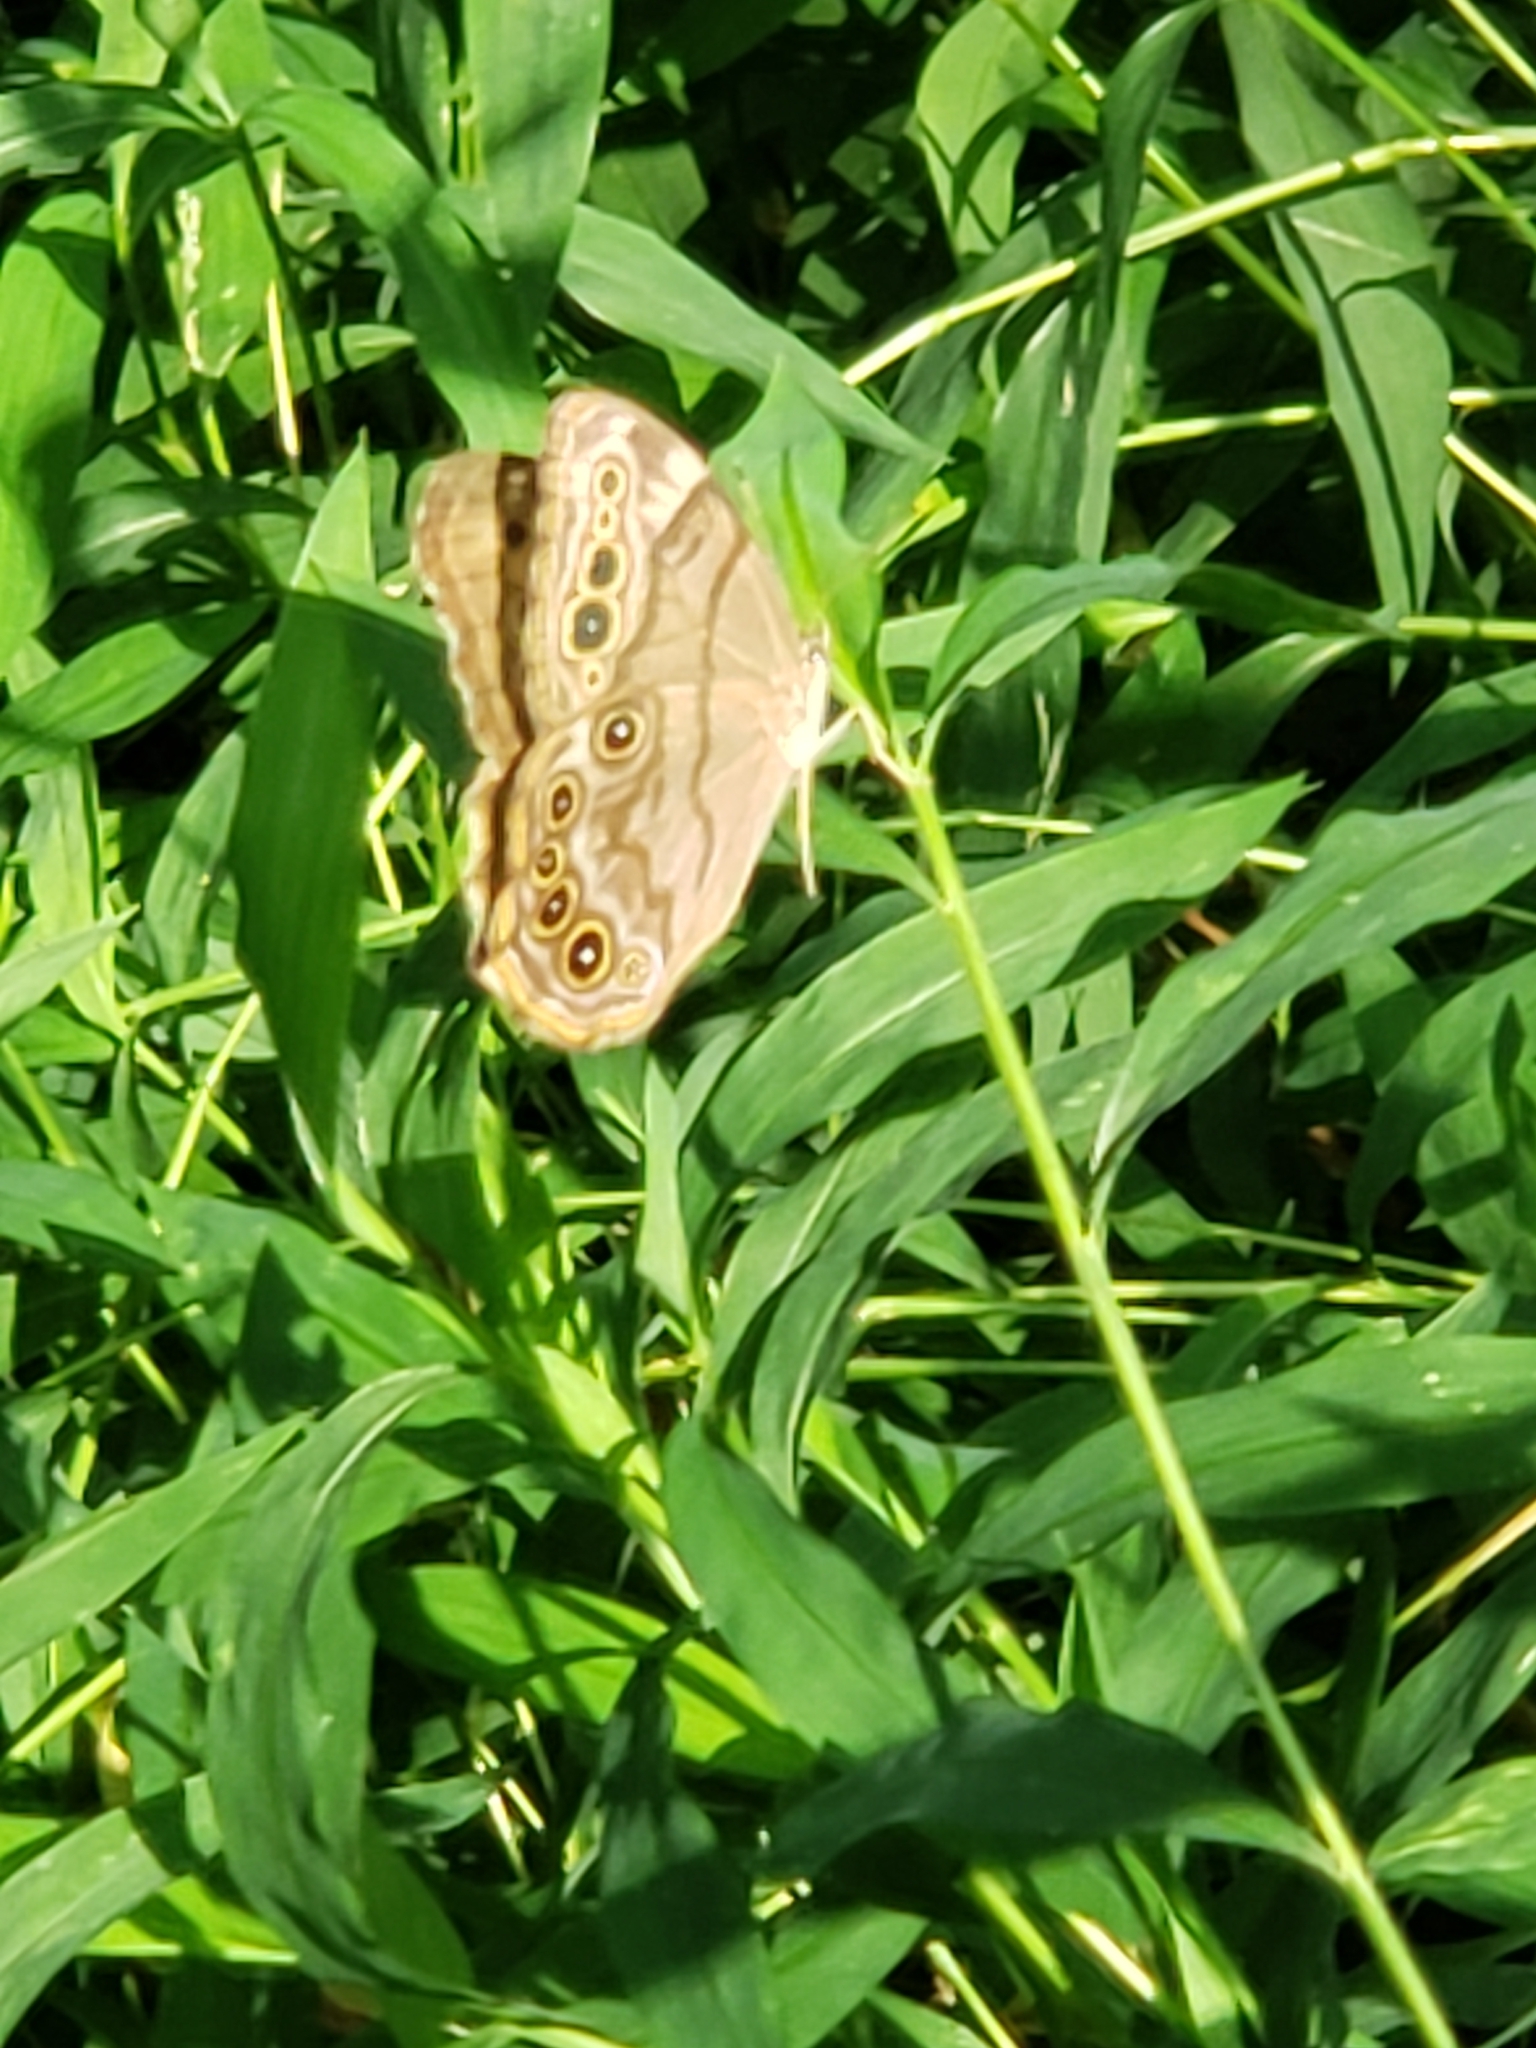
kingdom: Animalia
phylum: Arthropoda
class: Insecta
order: Lepidoptera
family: Nymphalidae
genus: Lethe
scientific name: Lethe anthedon
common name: Northern pearly-eye
